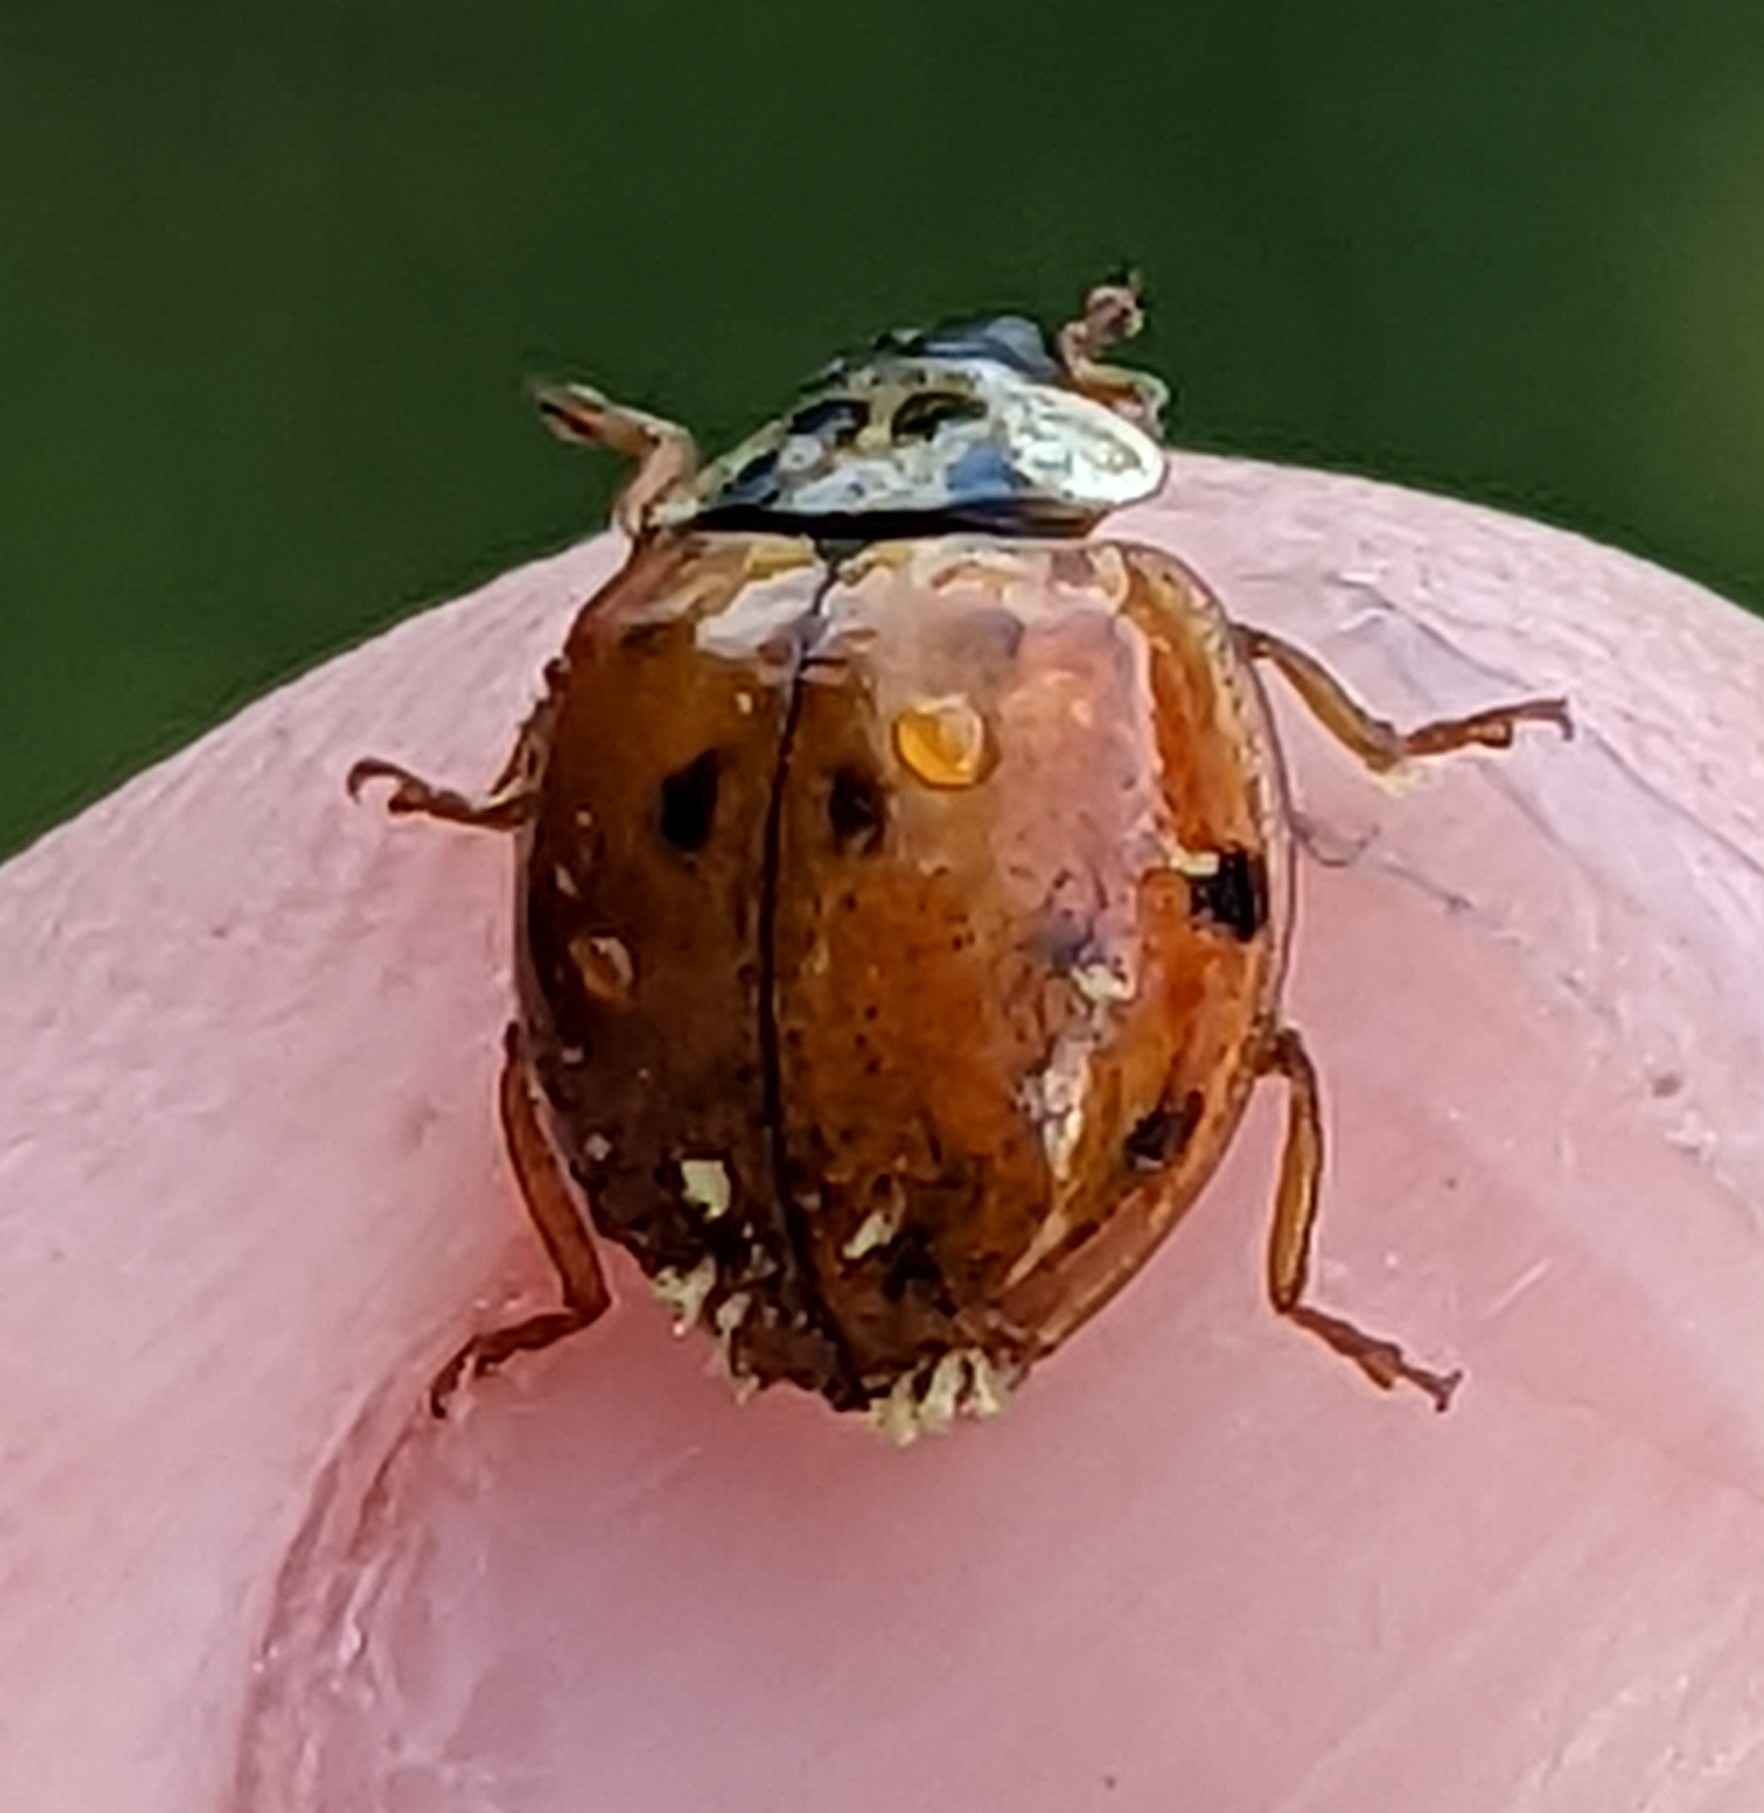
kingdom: Fungi
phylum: Ascomycota
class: Laboulbeniomycetes
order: Laboulbeniales
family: Laboulbeniaceae
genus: Hesperomyces
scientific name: Hesperomyces harmoniae
